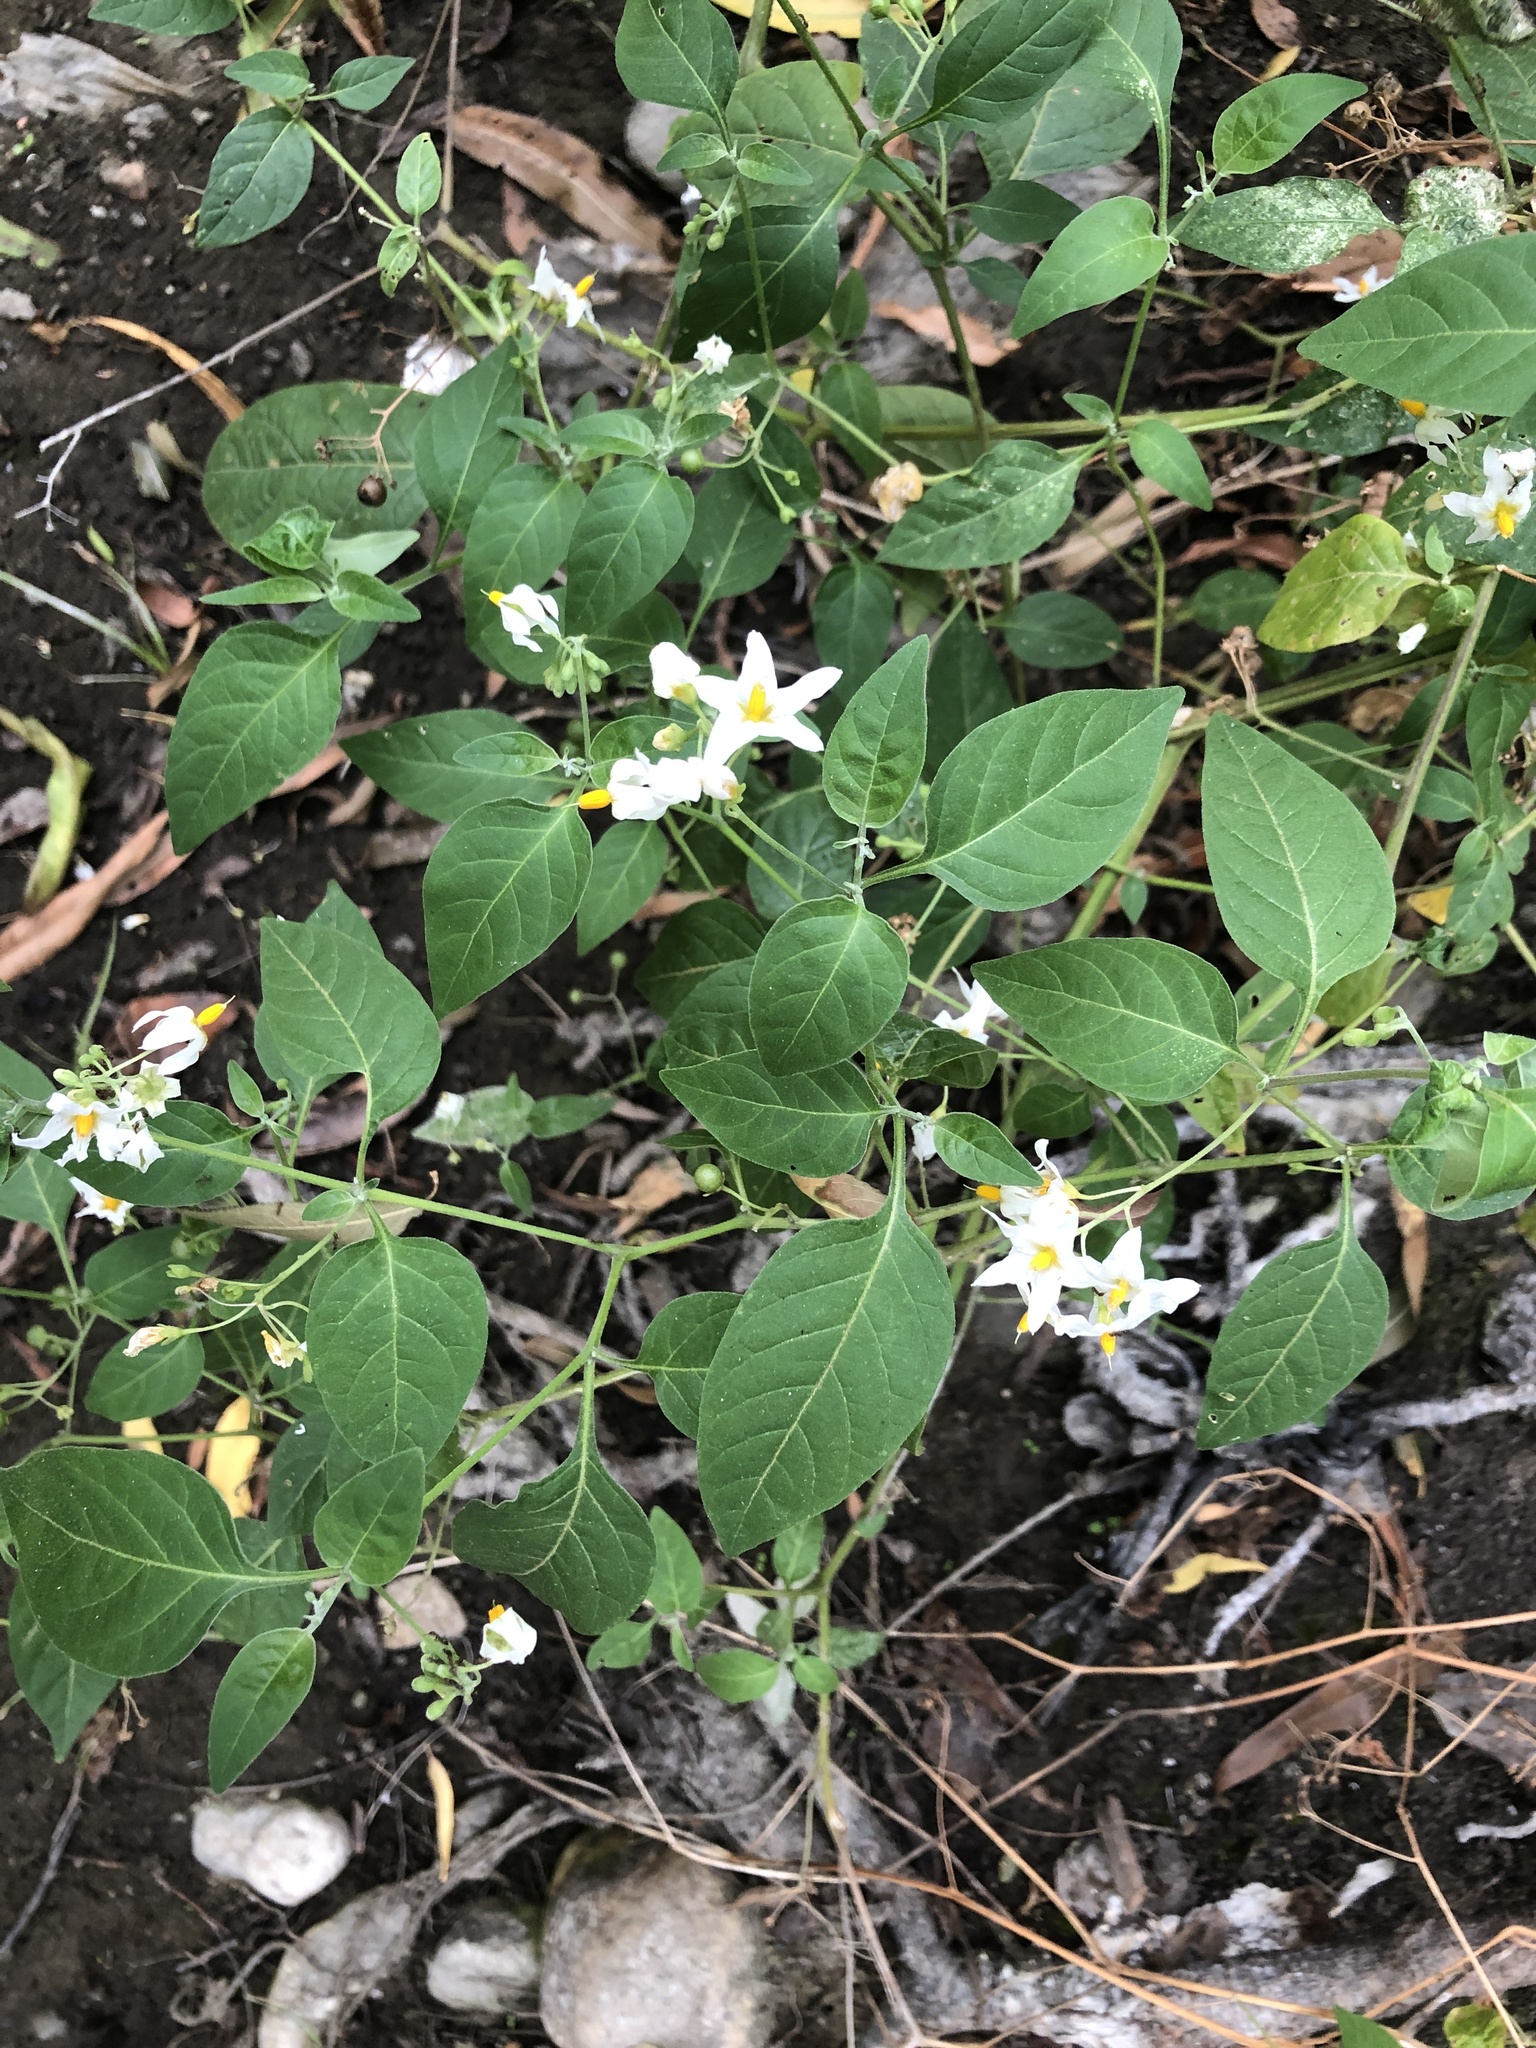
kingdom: Plantae
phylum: Tracheophyta
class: Magnoliopsida
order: Solanales
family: Solanaceae
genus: Solanum
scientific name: Solanum douglasii
